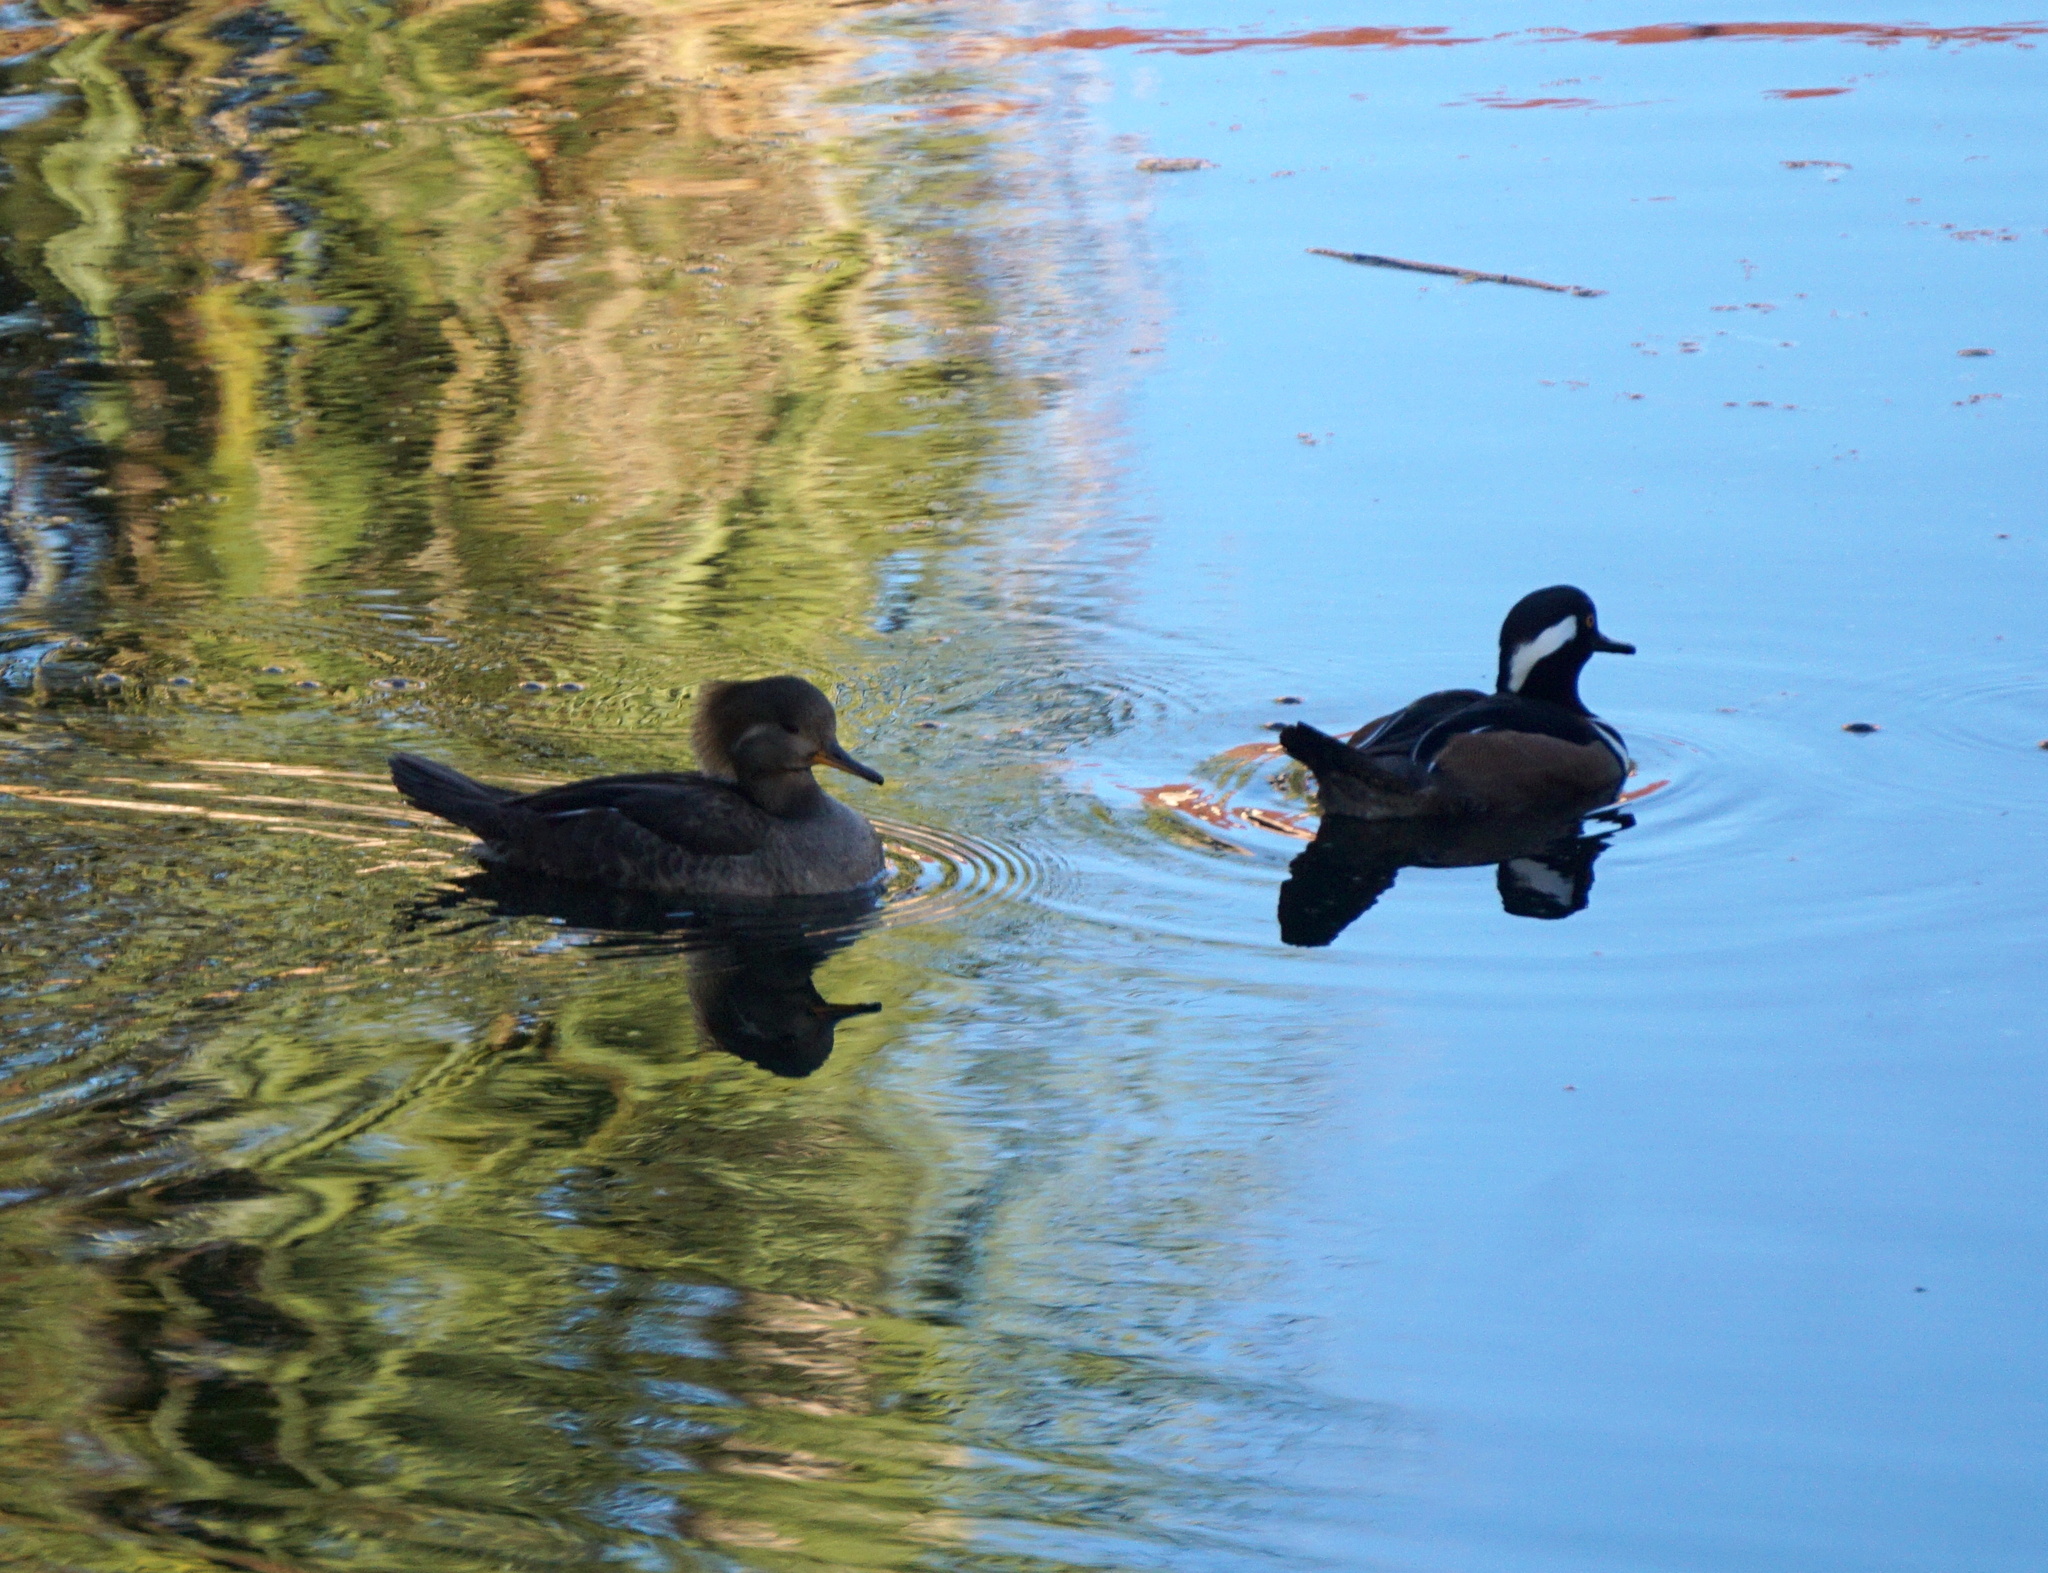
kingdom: Animalia
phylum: Chordata
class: Aves
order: Anseriformes
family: Anatidae
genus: Lophodytes
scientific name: Lophodytes cucullatus
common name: Hooded merganser
